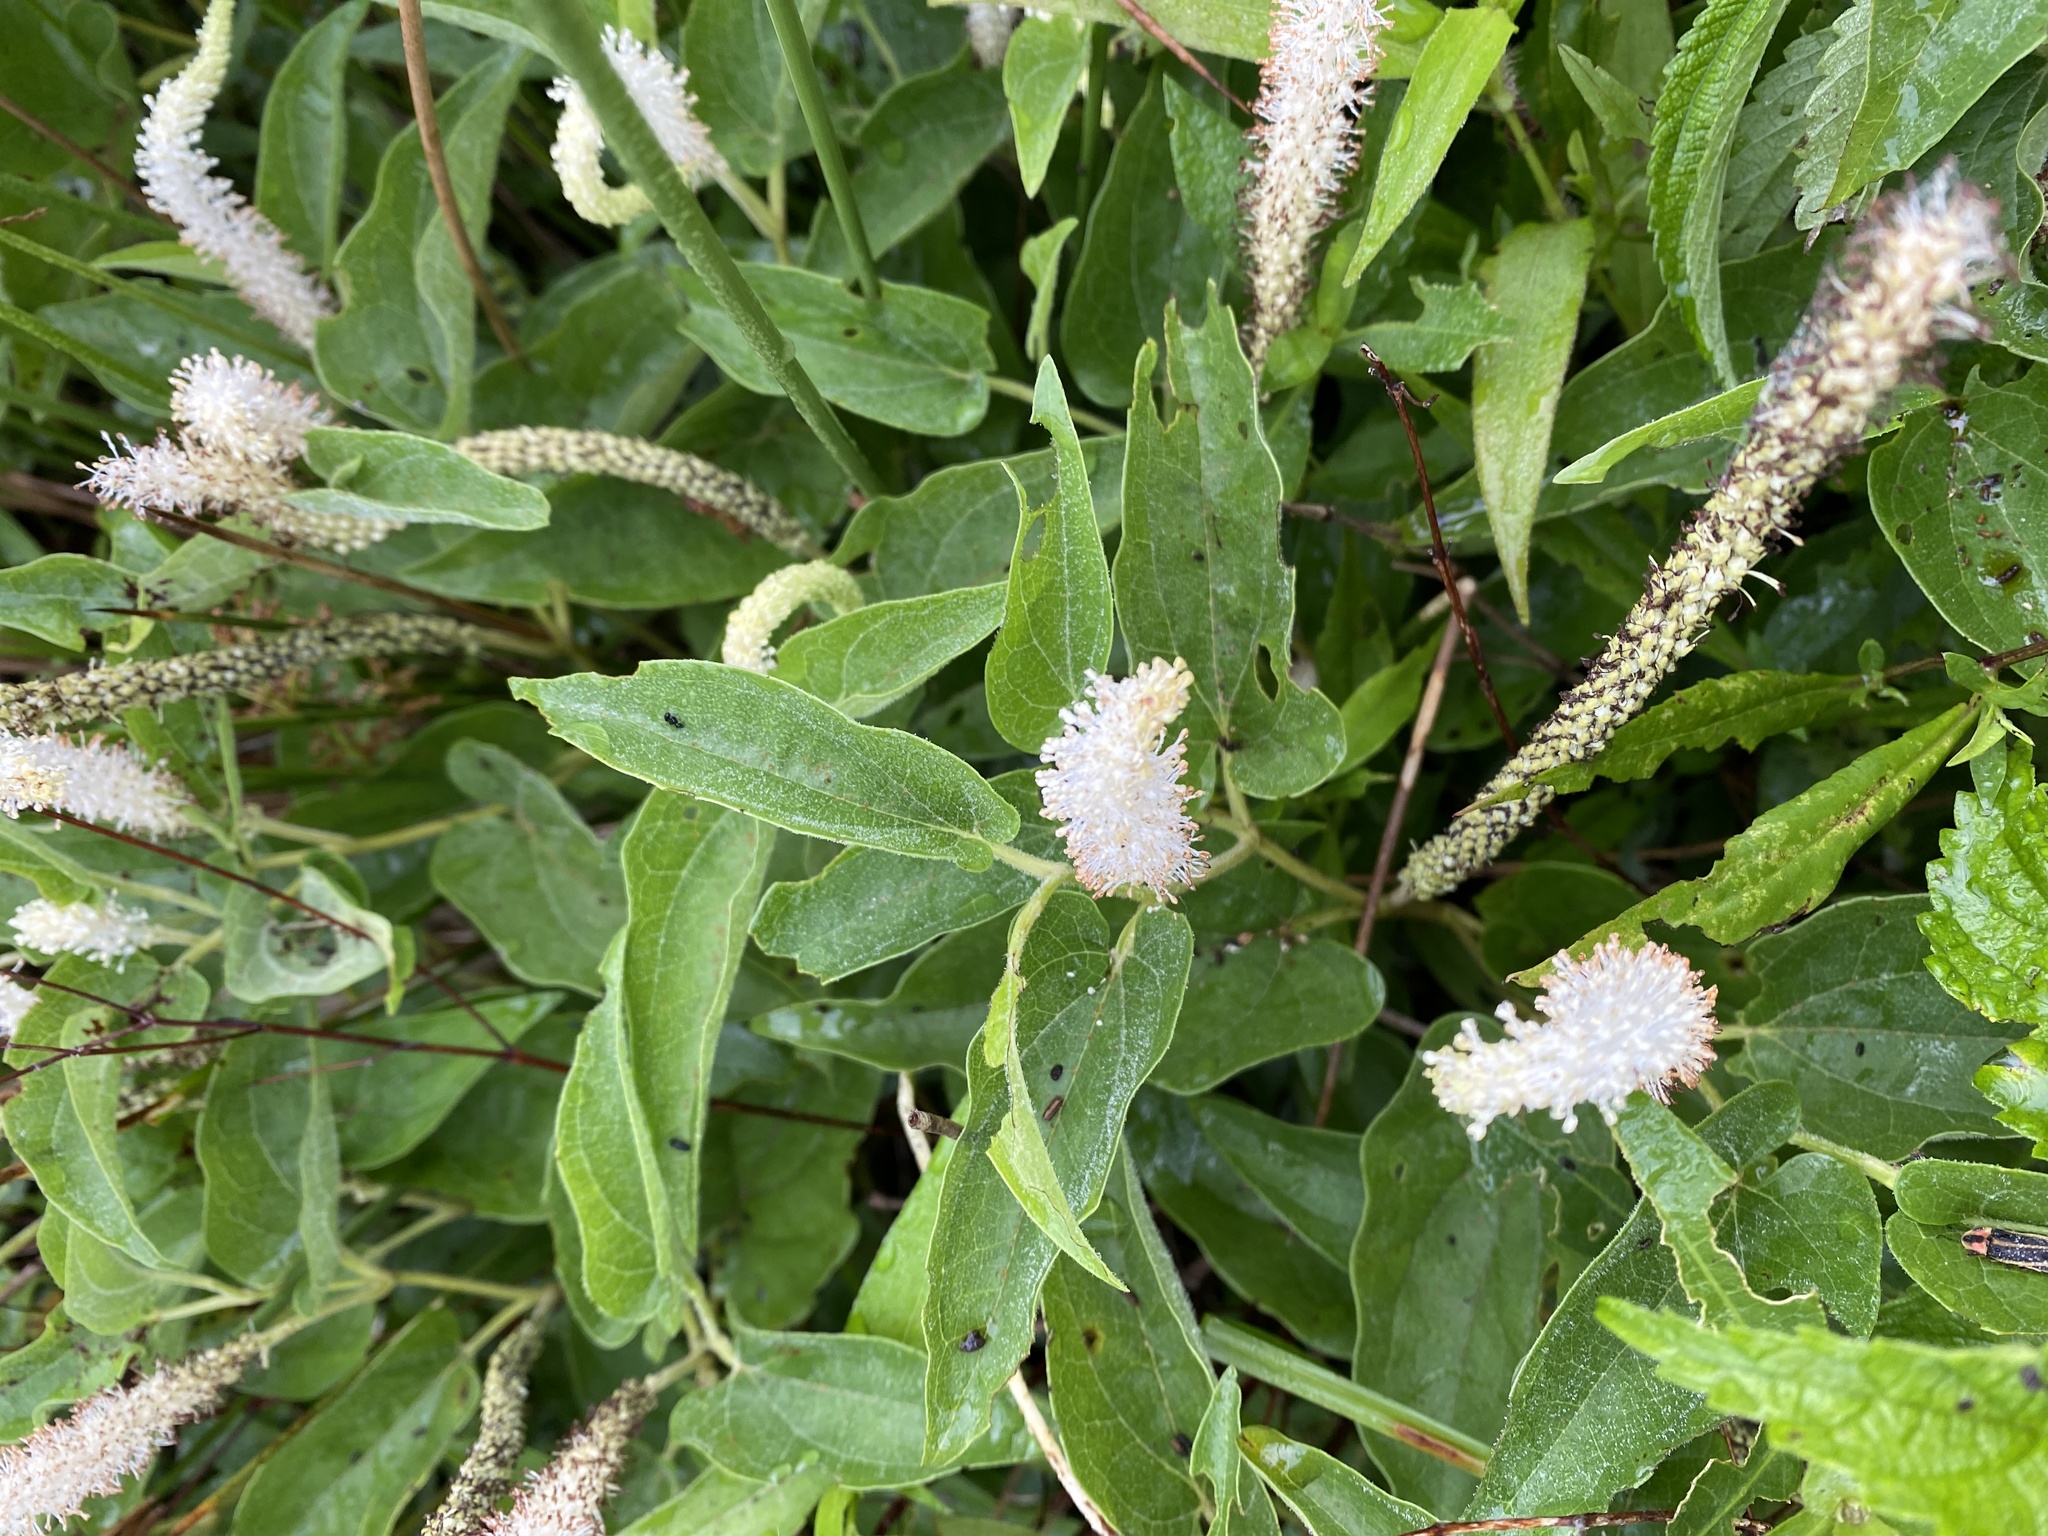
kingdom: Plantae
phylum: Tracheophyta
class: Magnoliopsida
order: Piperales
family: Saururaceae
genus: Saururus
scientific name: Saururus cernuus
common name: Lizard's-tail
